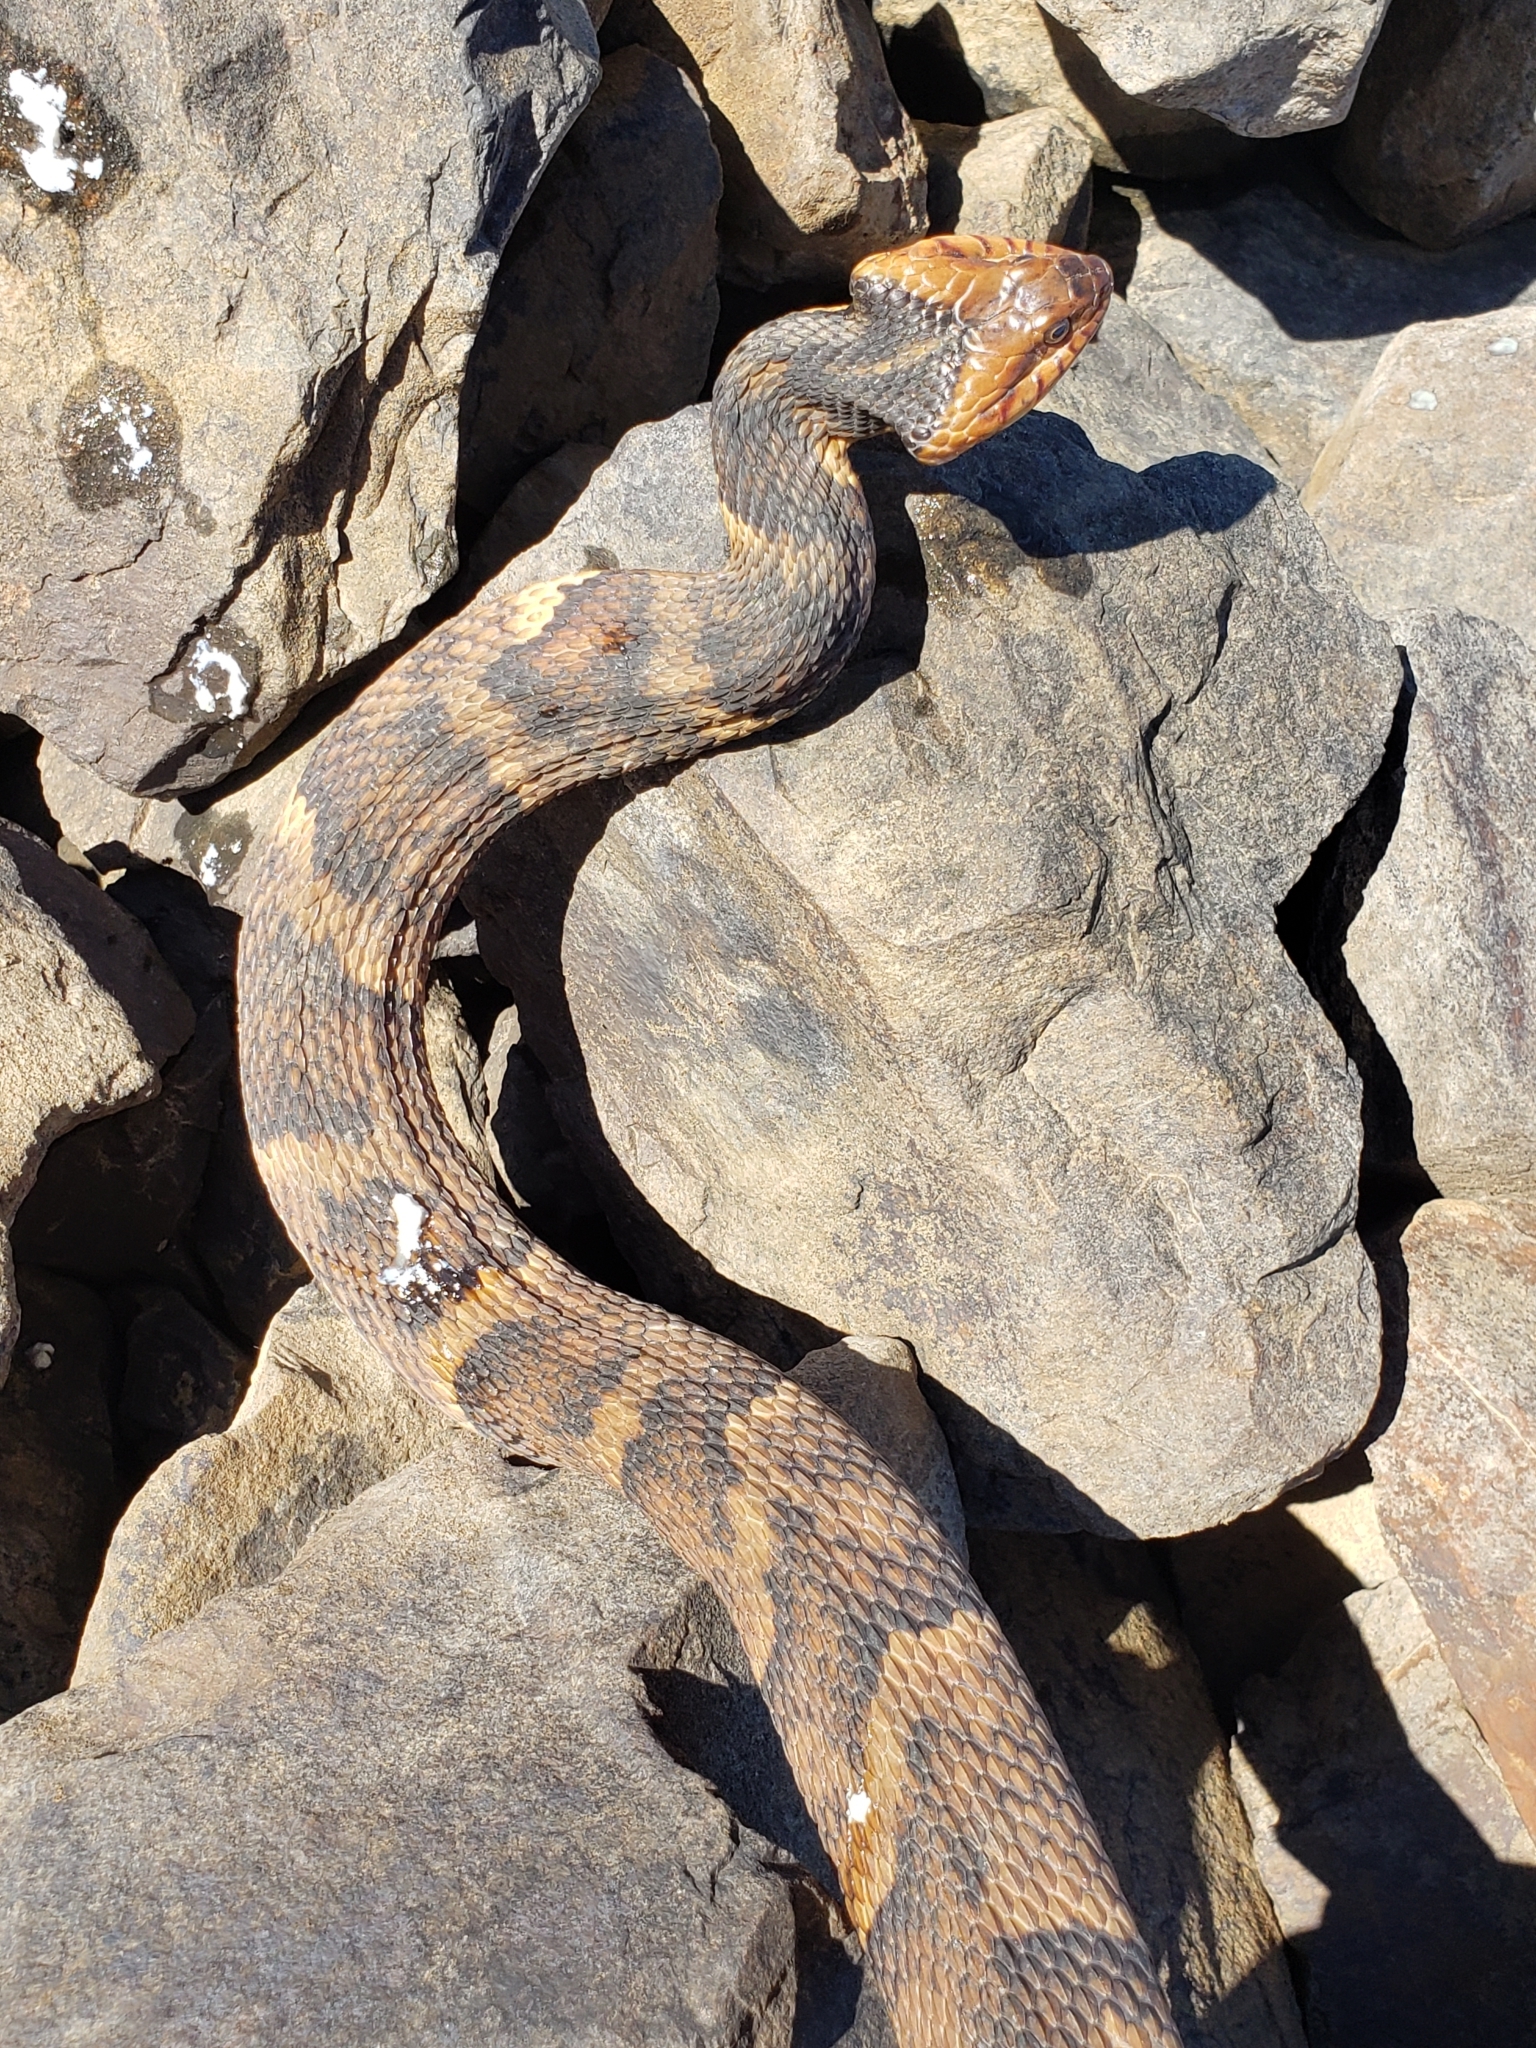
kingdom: Animalia
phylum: Chordata
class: Squamata
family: Colubridae
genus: Nerodia
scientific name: Nerodia fasciata
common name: Southern water snake
